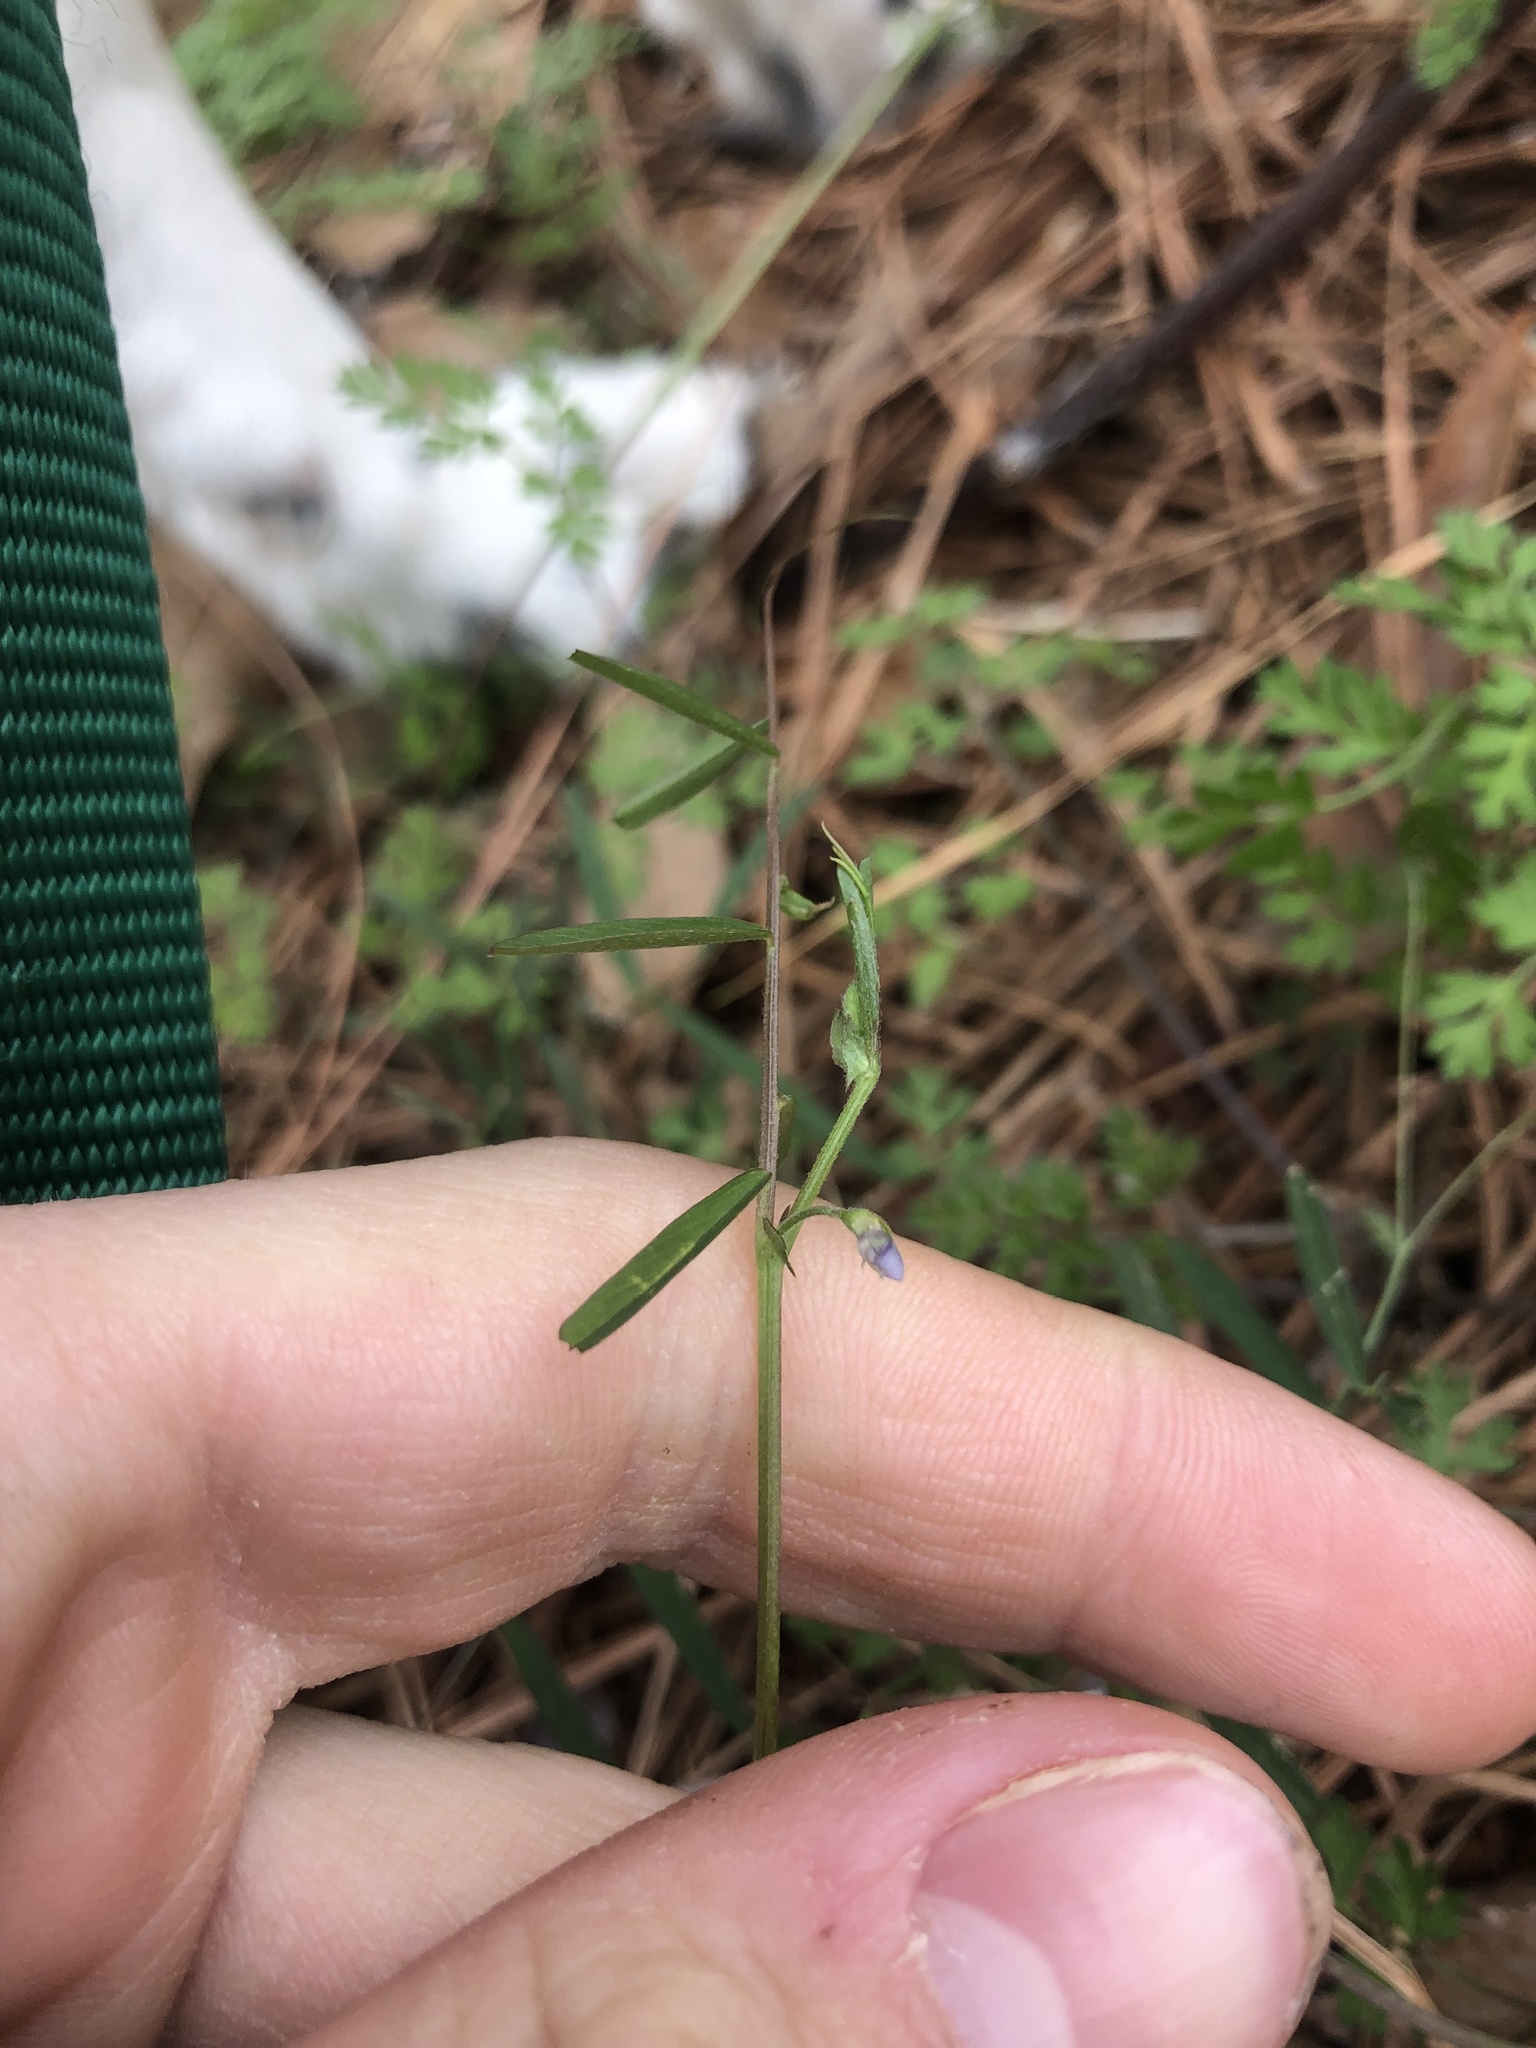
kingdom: Plantae
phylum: Tracheophyta
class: Magnoliopsida
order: Fabales
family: Fabaceae
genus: Vicia
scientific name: Vicia minutiflora
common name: Pygmy-flower vetch
